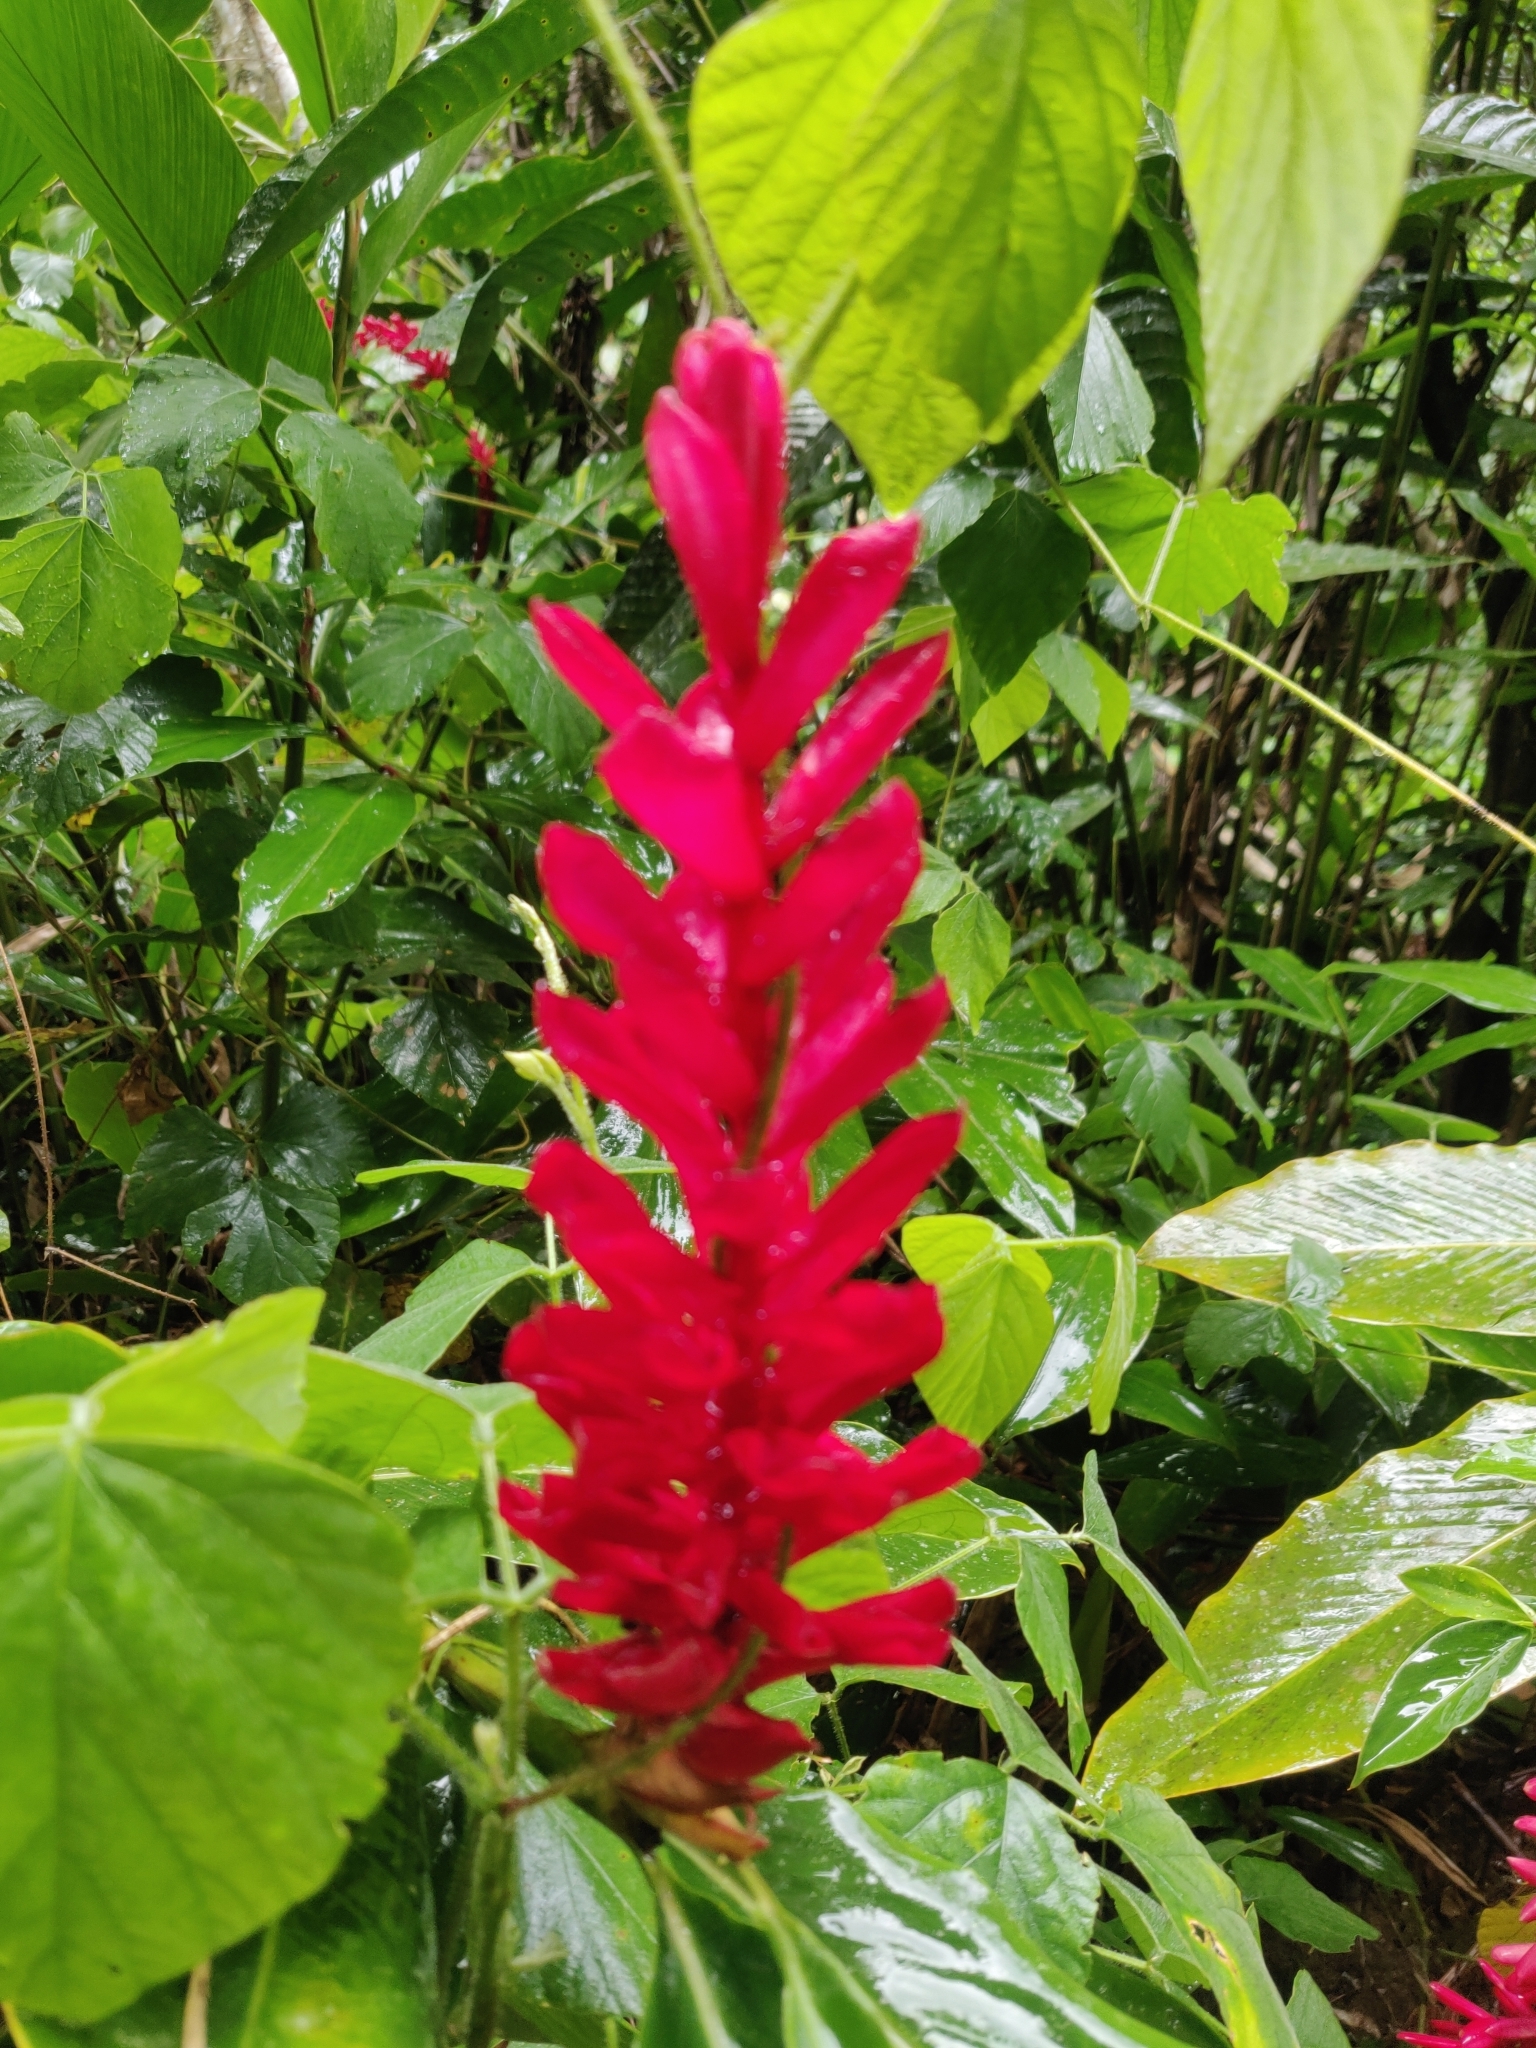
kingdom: Plantae
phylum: Tracheophyta
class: Liliopsida
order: Zingiberales
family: Zingiberaceae
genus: Alpinia
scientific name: Alpinia purpurata
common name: Red ginger
